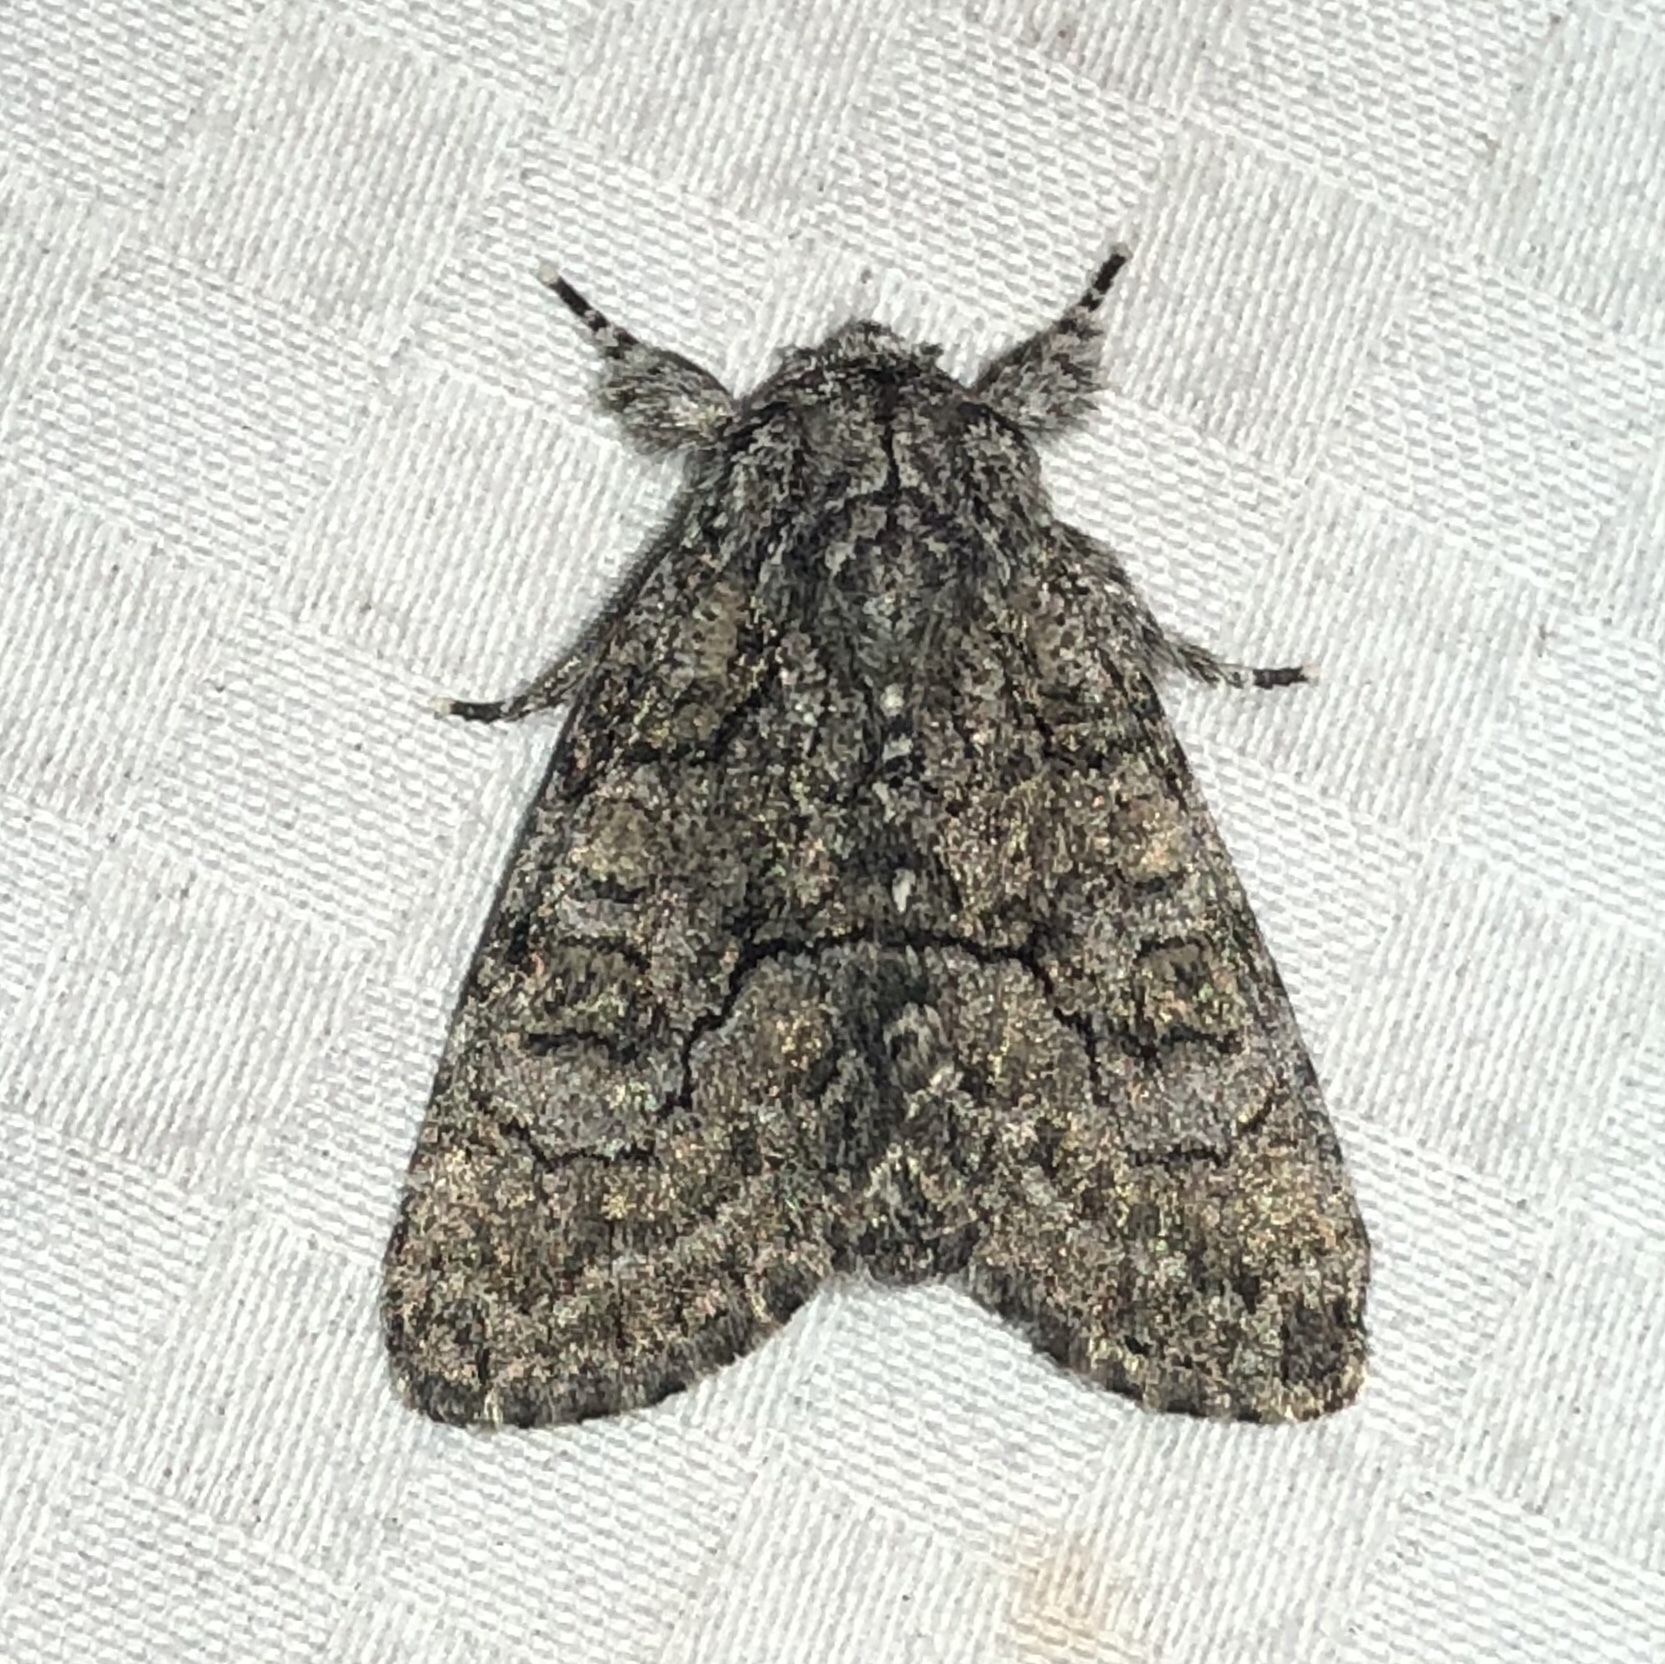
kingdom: Animalia
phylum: Arthropoda
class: Insecta
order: Lepidoptera
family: Noctuidae
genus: Raphia
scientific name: Raphia frater
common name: Brother
